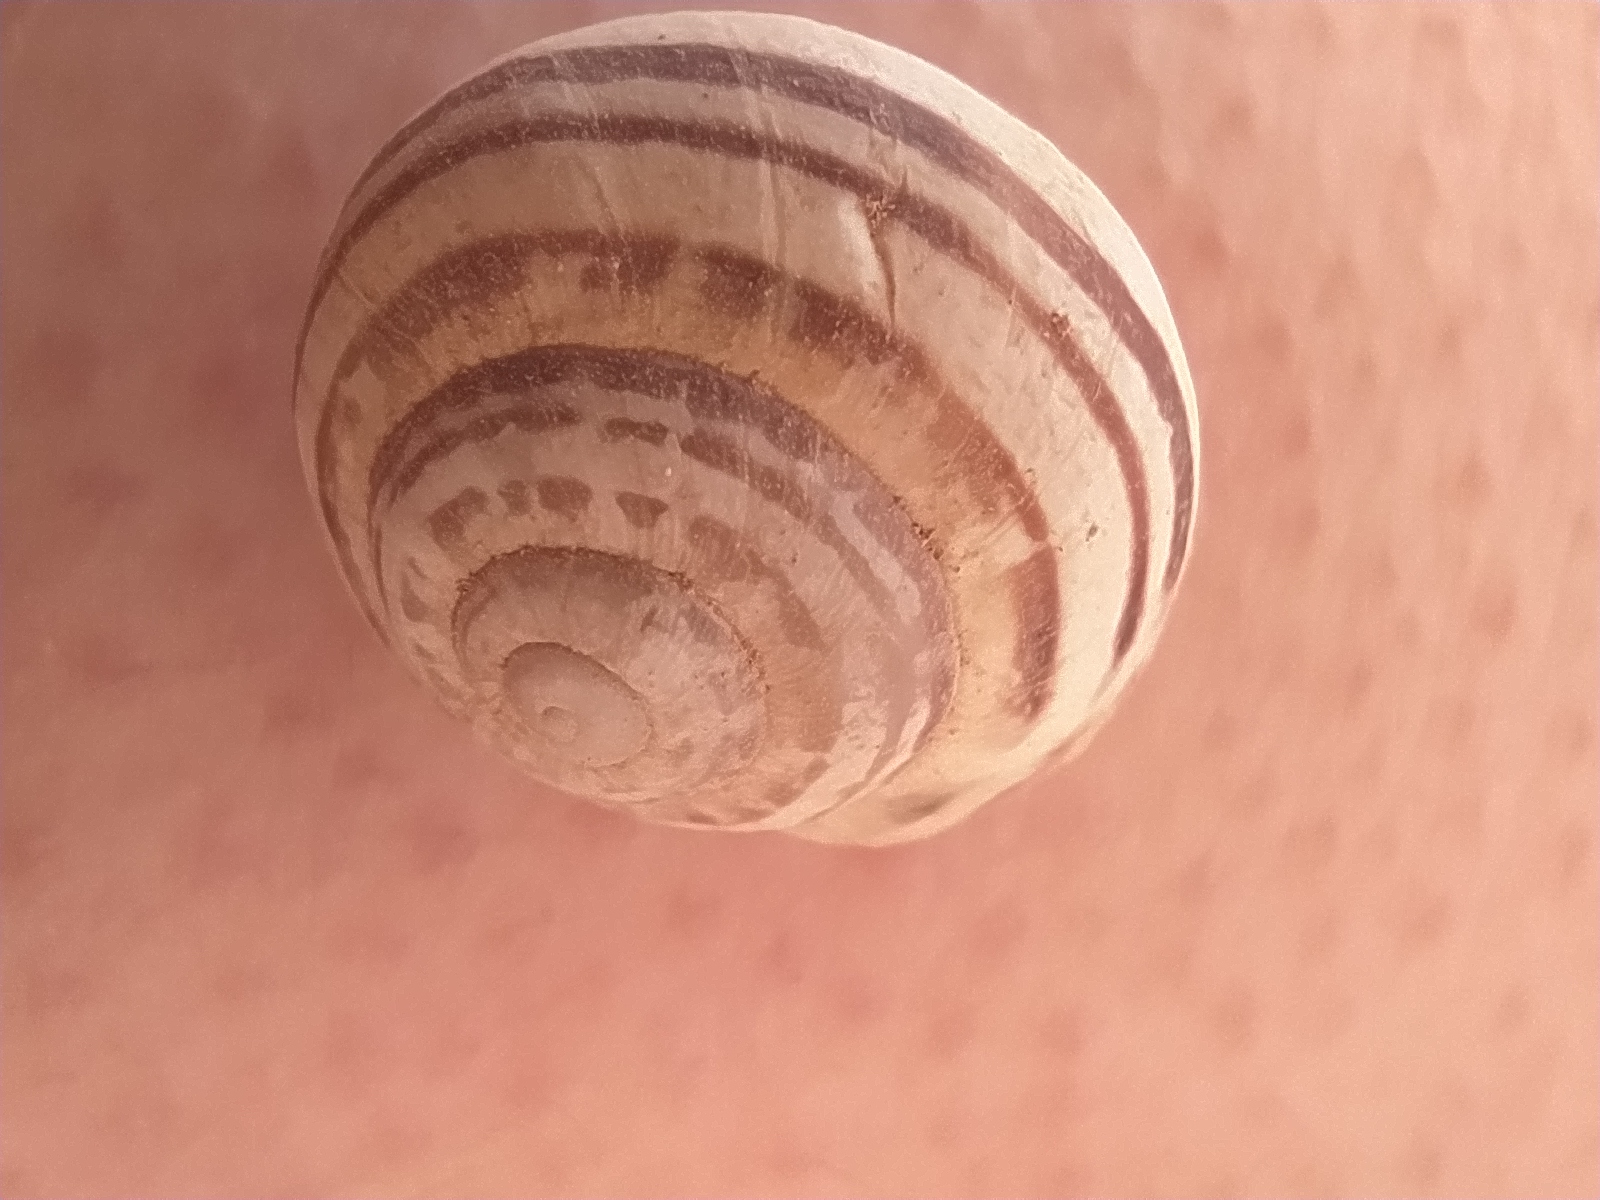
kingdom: Animalia
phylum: Mollusca
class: Gastropoda
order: Stylommatophora
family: Helicidae
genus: Eobania
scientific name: Eobania vermiculata
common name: Chocolateband snail
